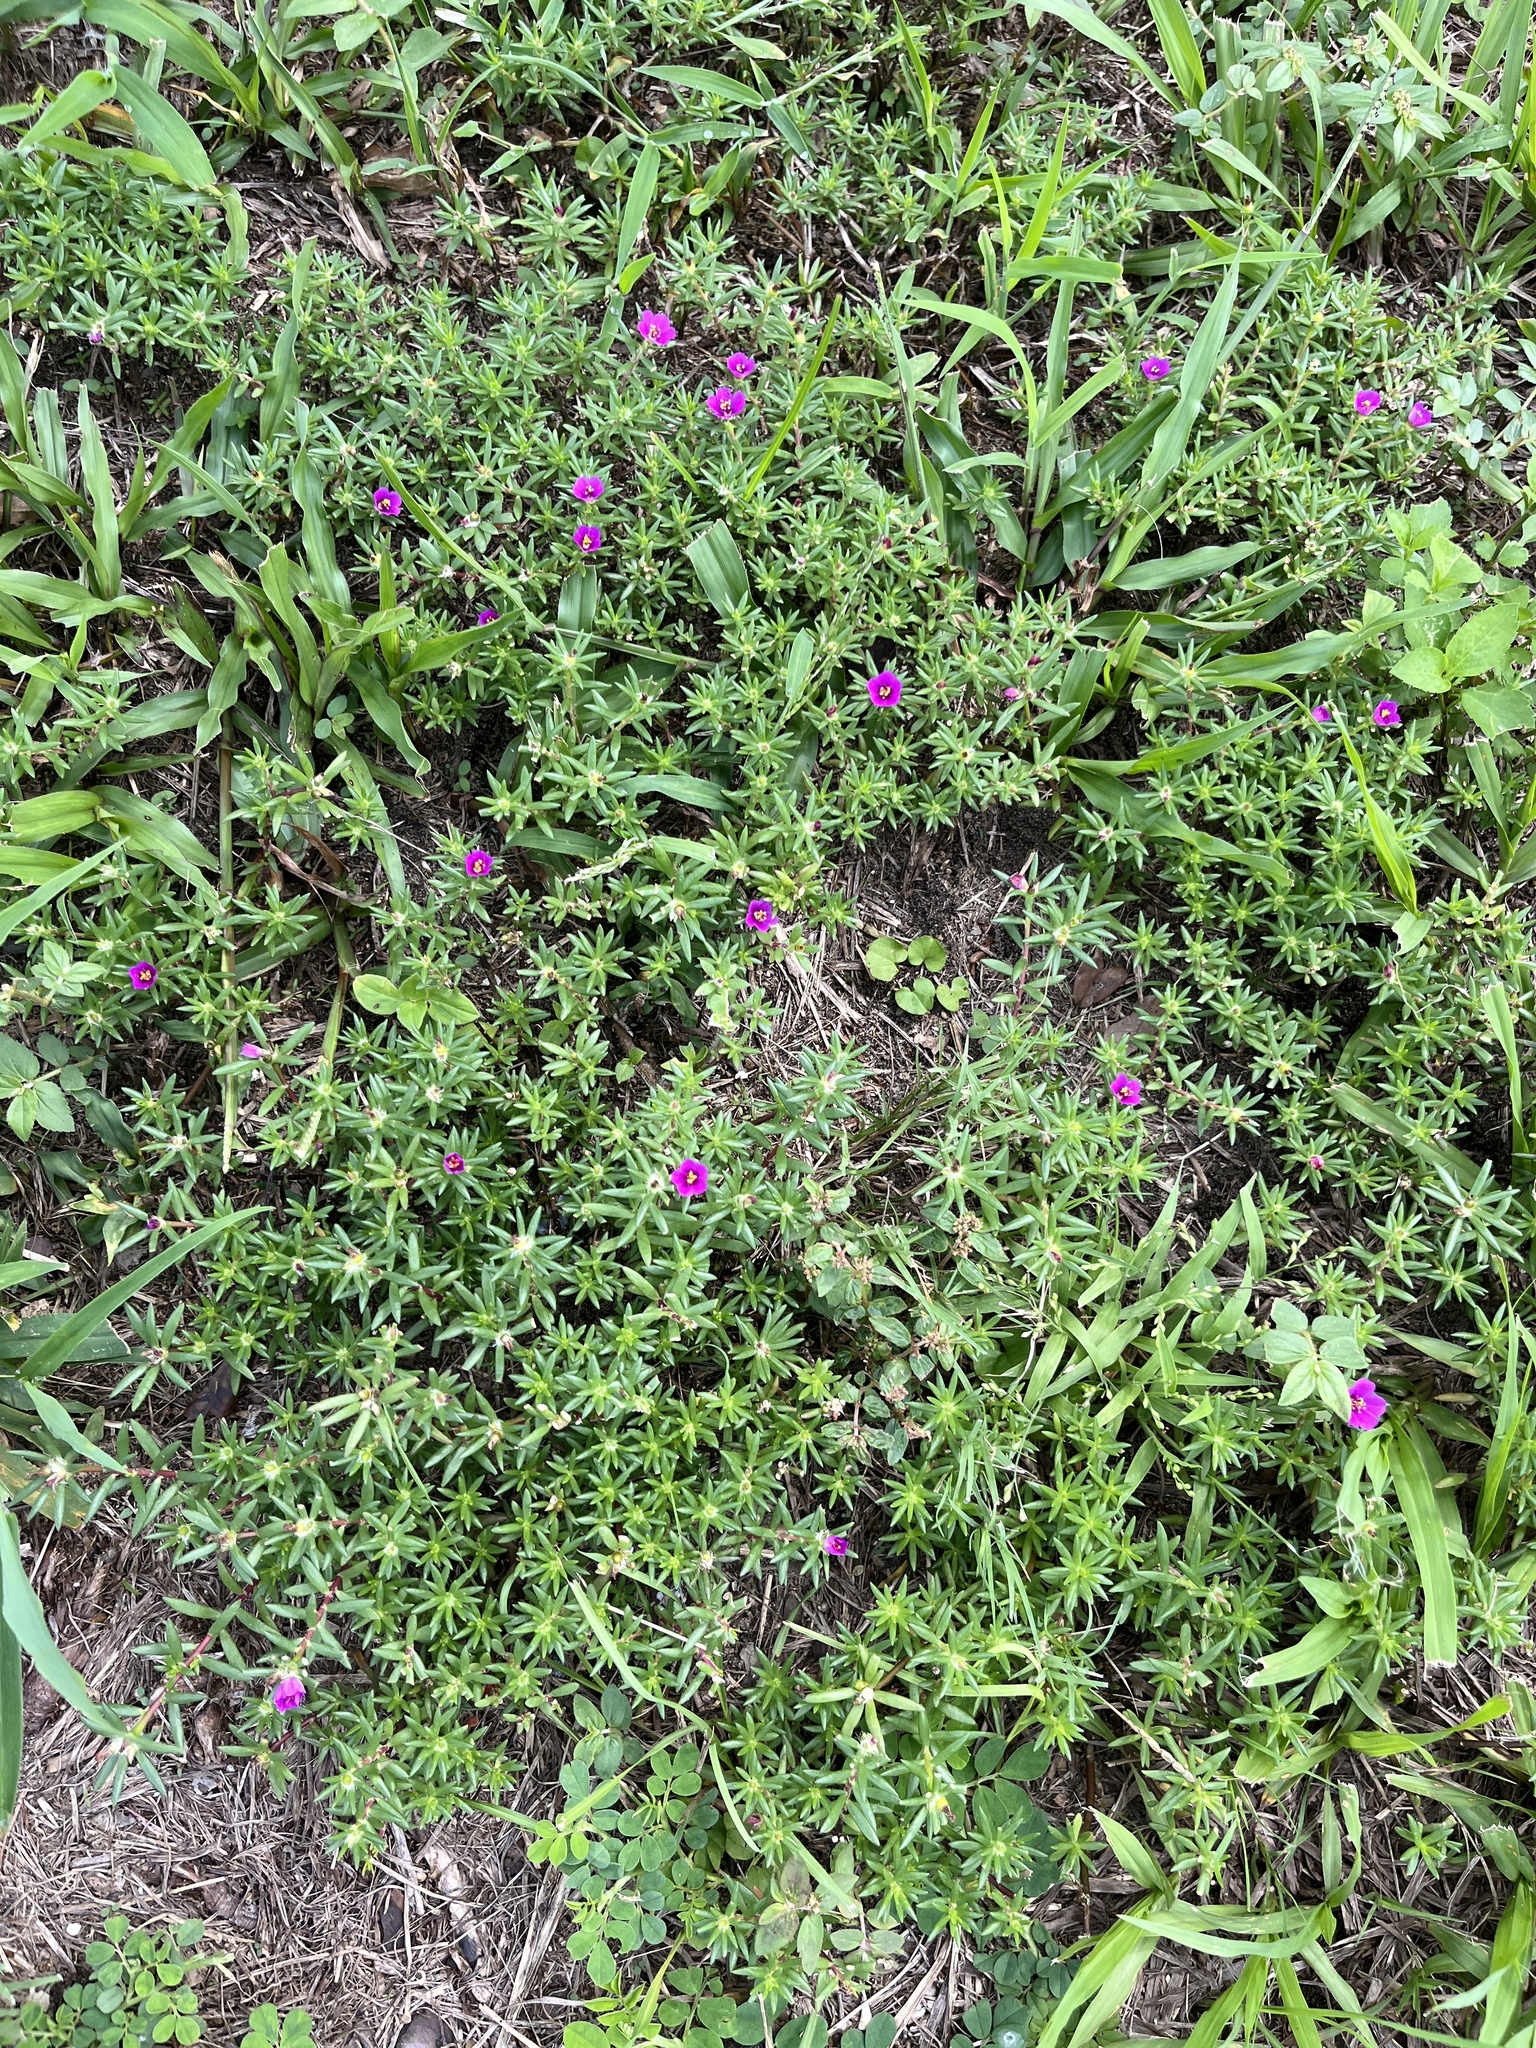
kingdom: Plantae
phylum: Tracheophyta
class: Magnoliopsida
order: Caryophyllales
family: Portulacaceae
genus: Portulaca
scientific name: Portulaca pilosa
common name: Kiss me quick
